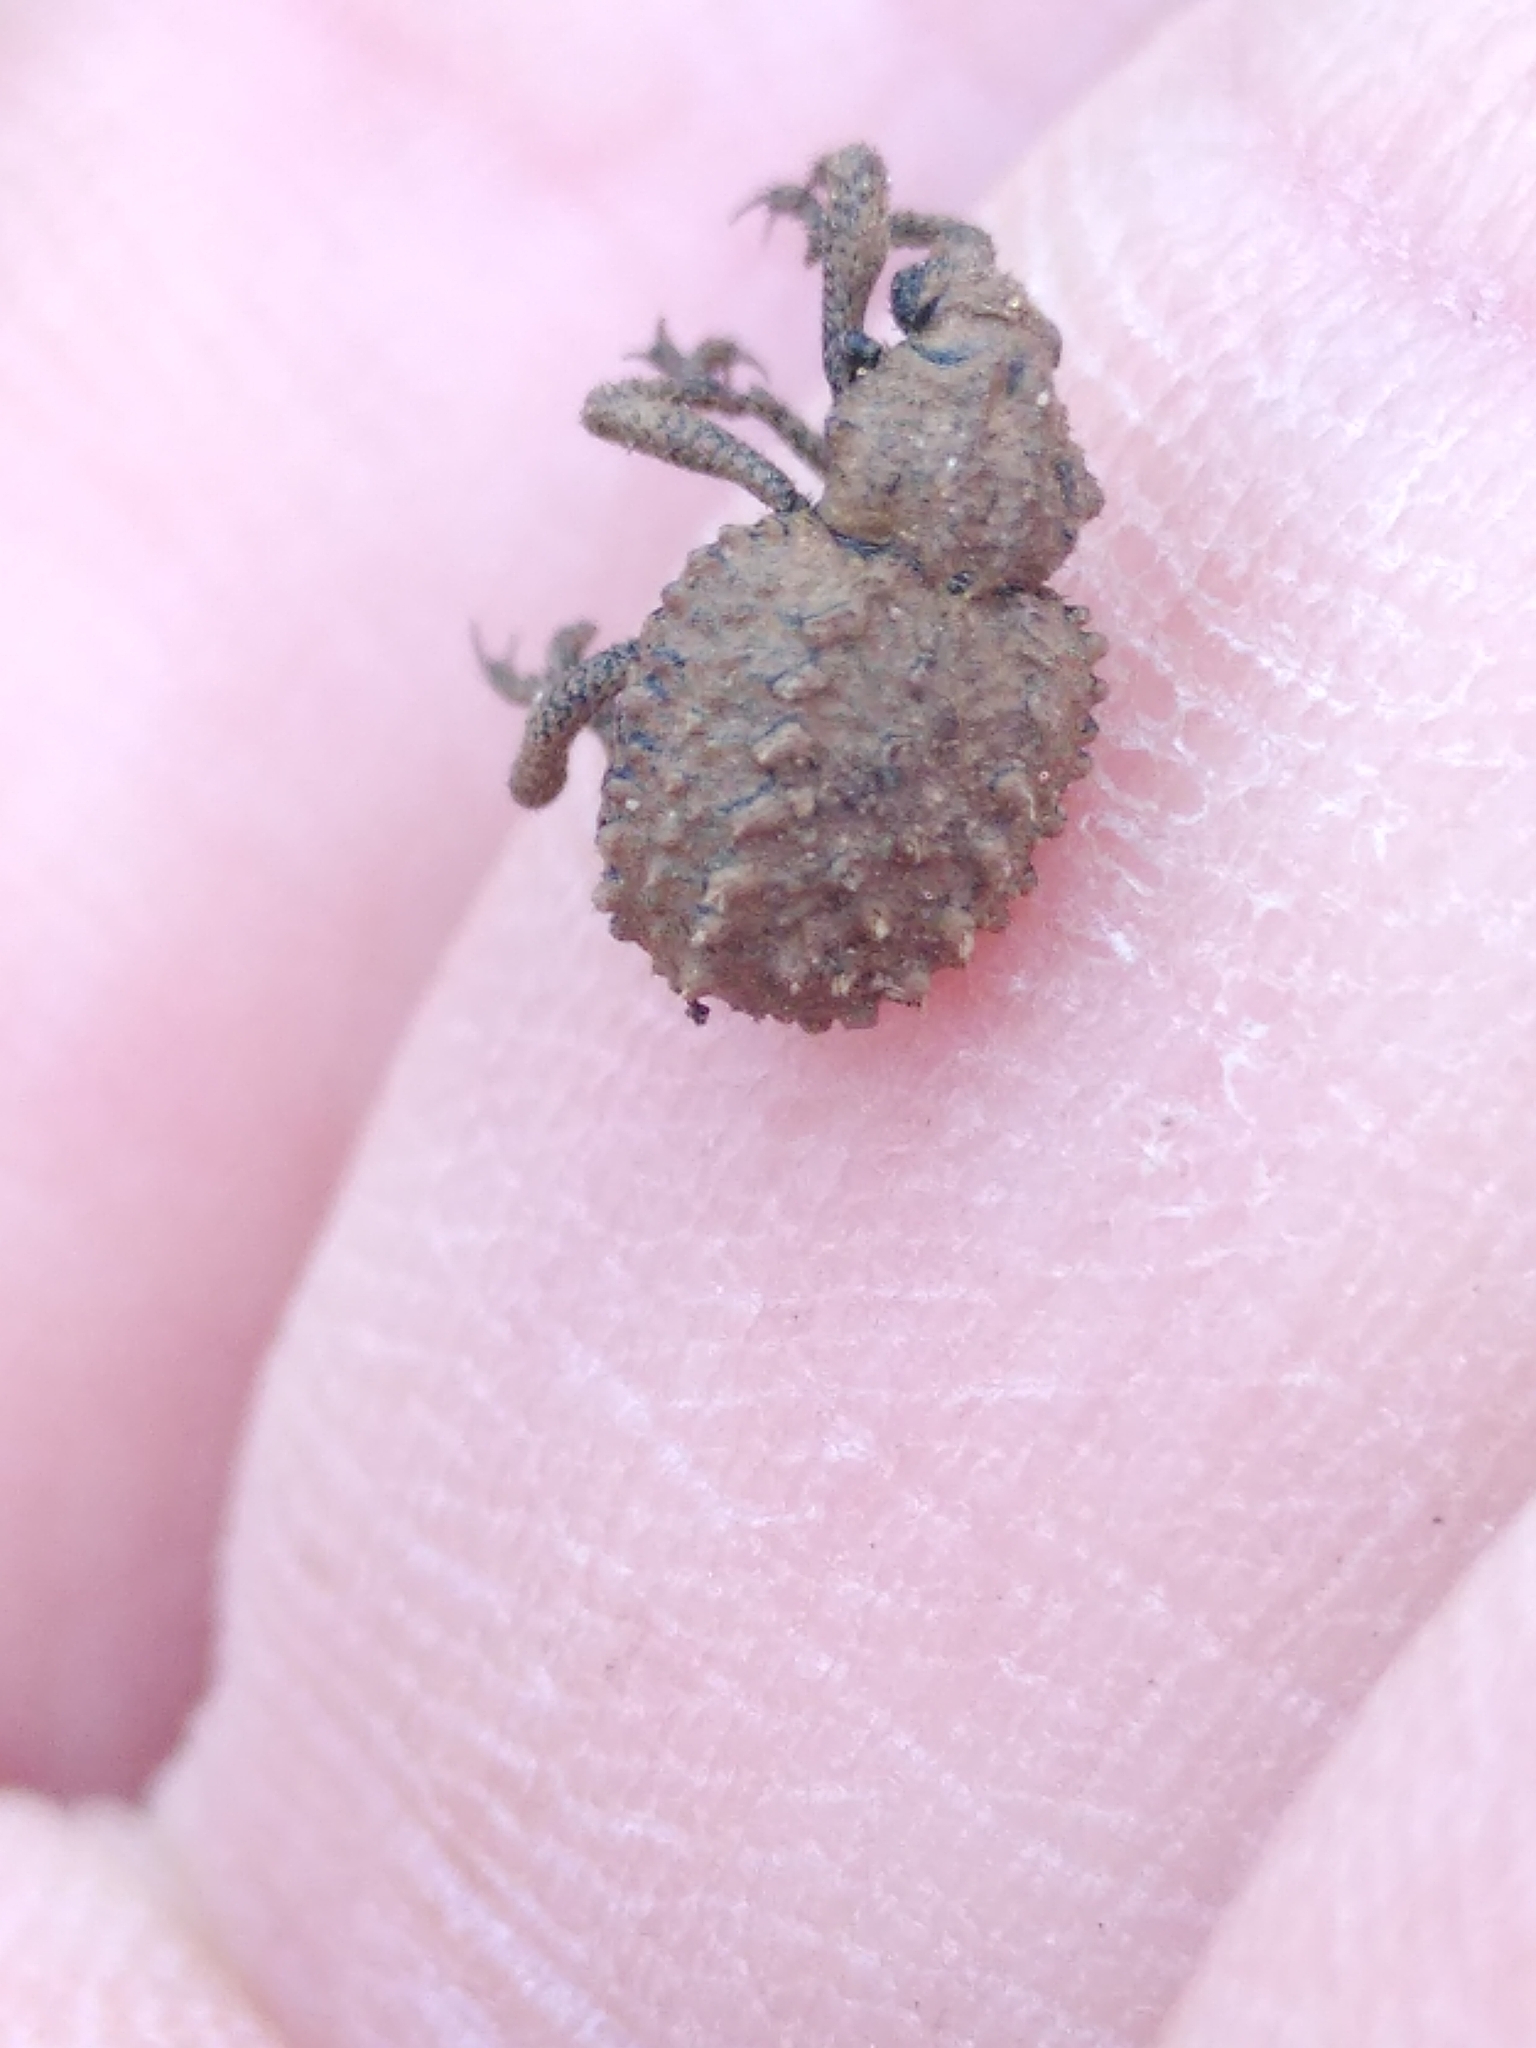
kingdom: Animalia
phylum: Arthropoda
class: Insecta
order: Coleoptera
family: Brachyceridae
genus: Brachycerus
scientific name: Brachycerus muricatus
